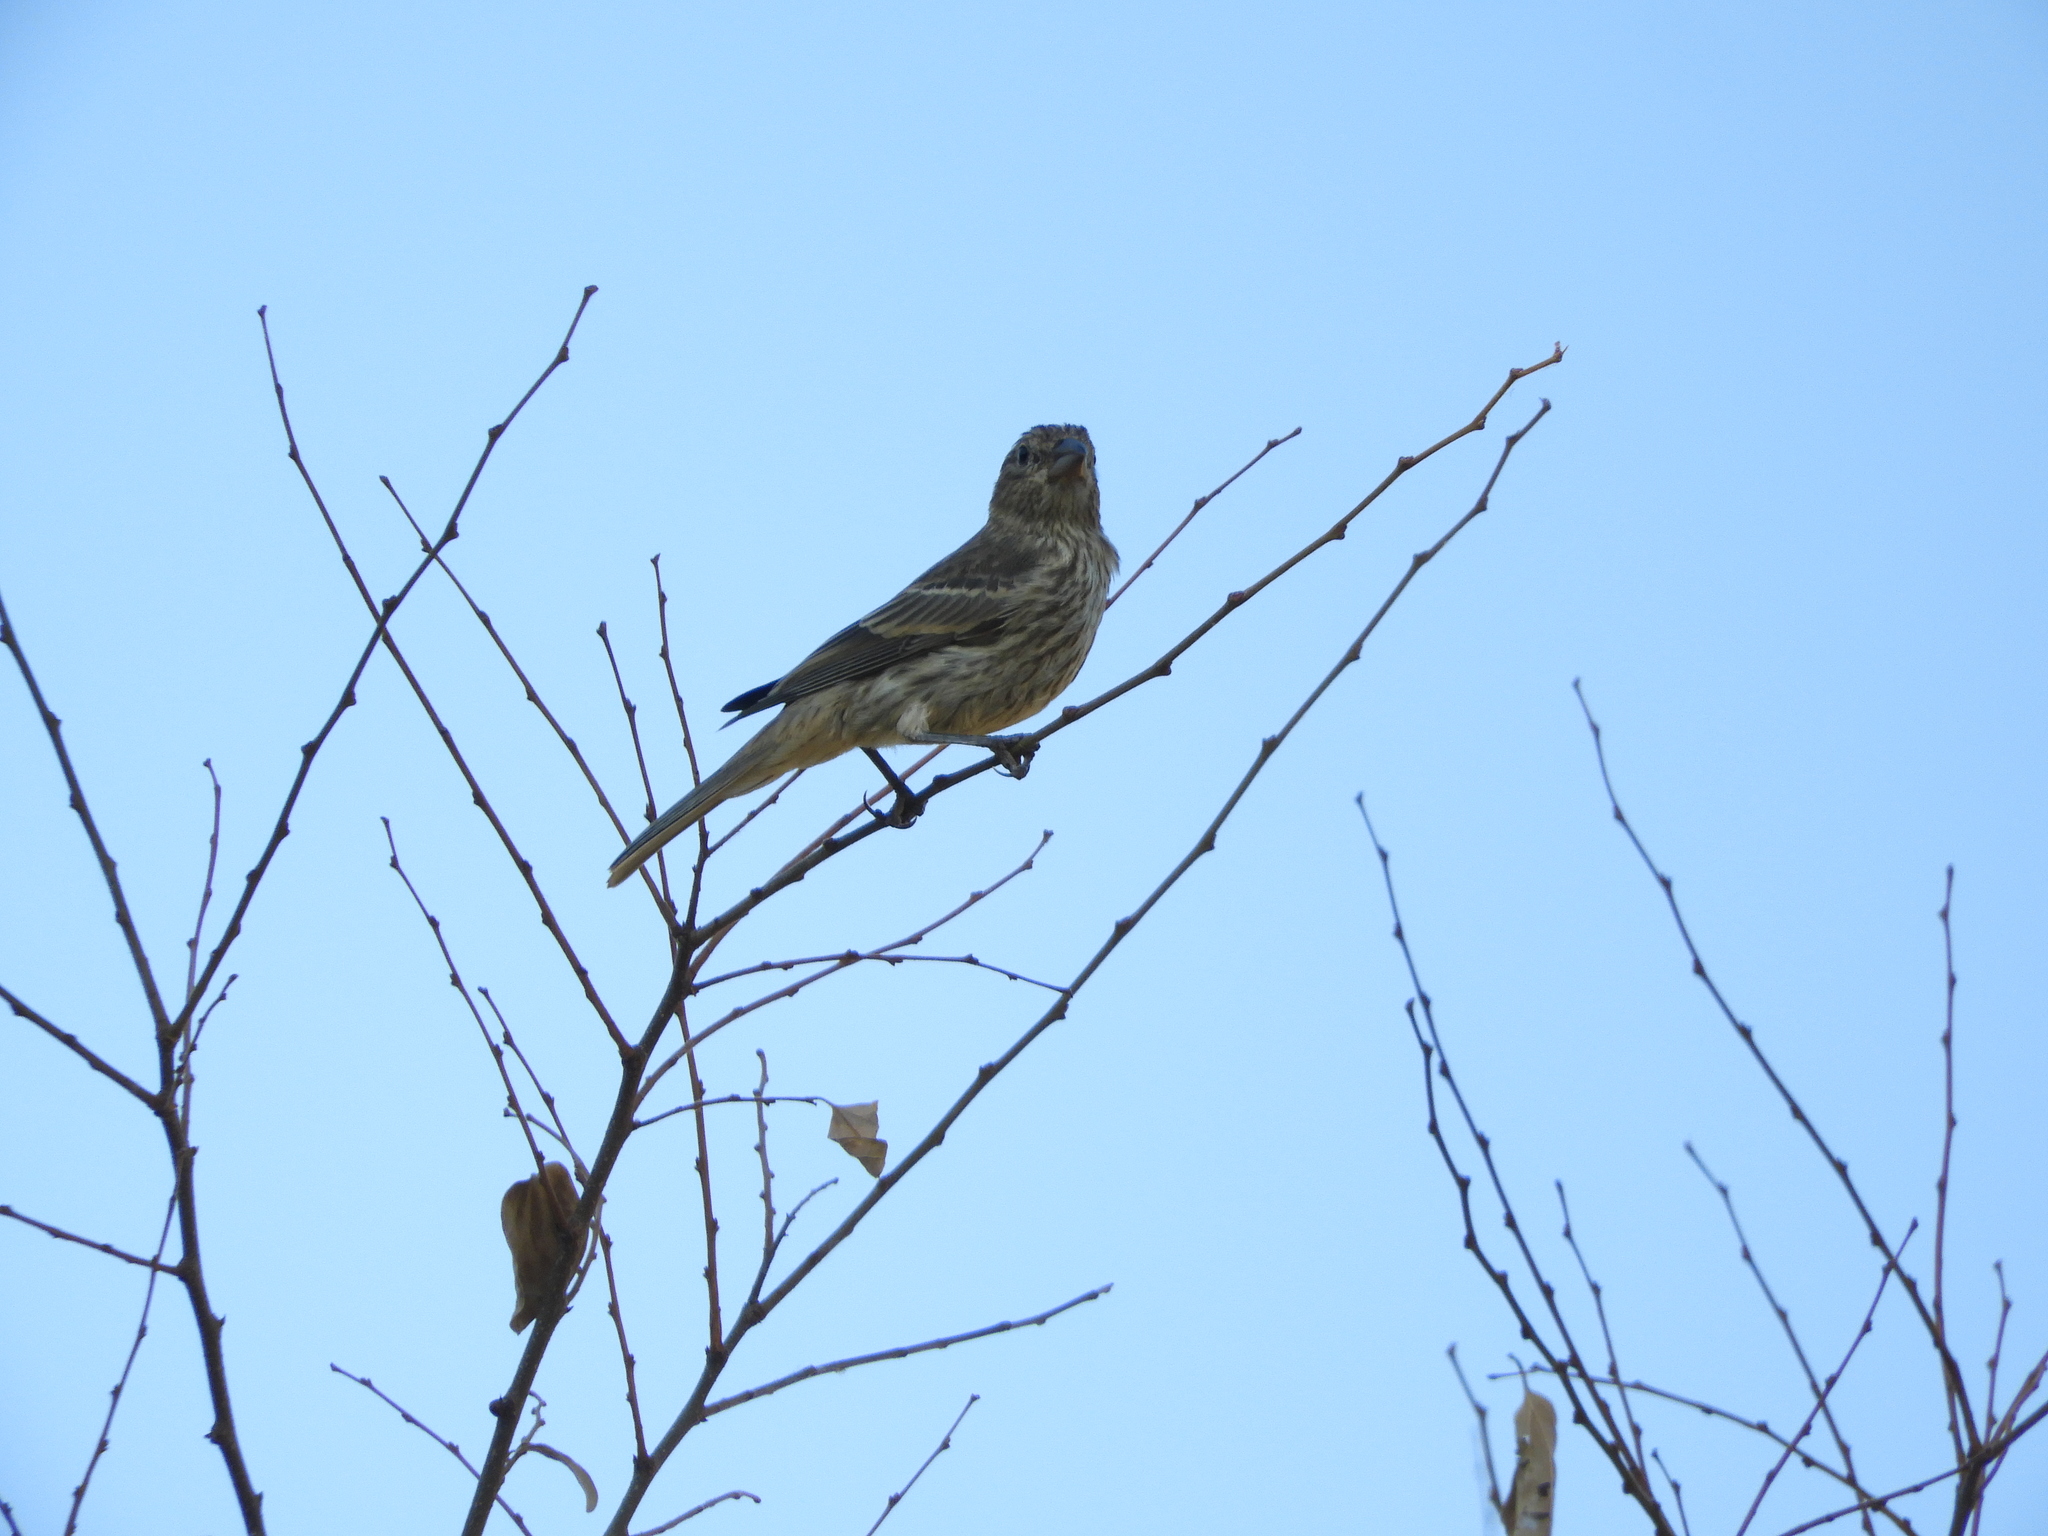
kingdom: Animalia
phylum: Chordata
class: Aves
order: Passeriformes
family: Fringillidae
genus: Haemorhous
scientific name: Haemorhous mexicanus
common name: House finch
